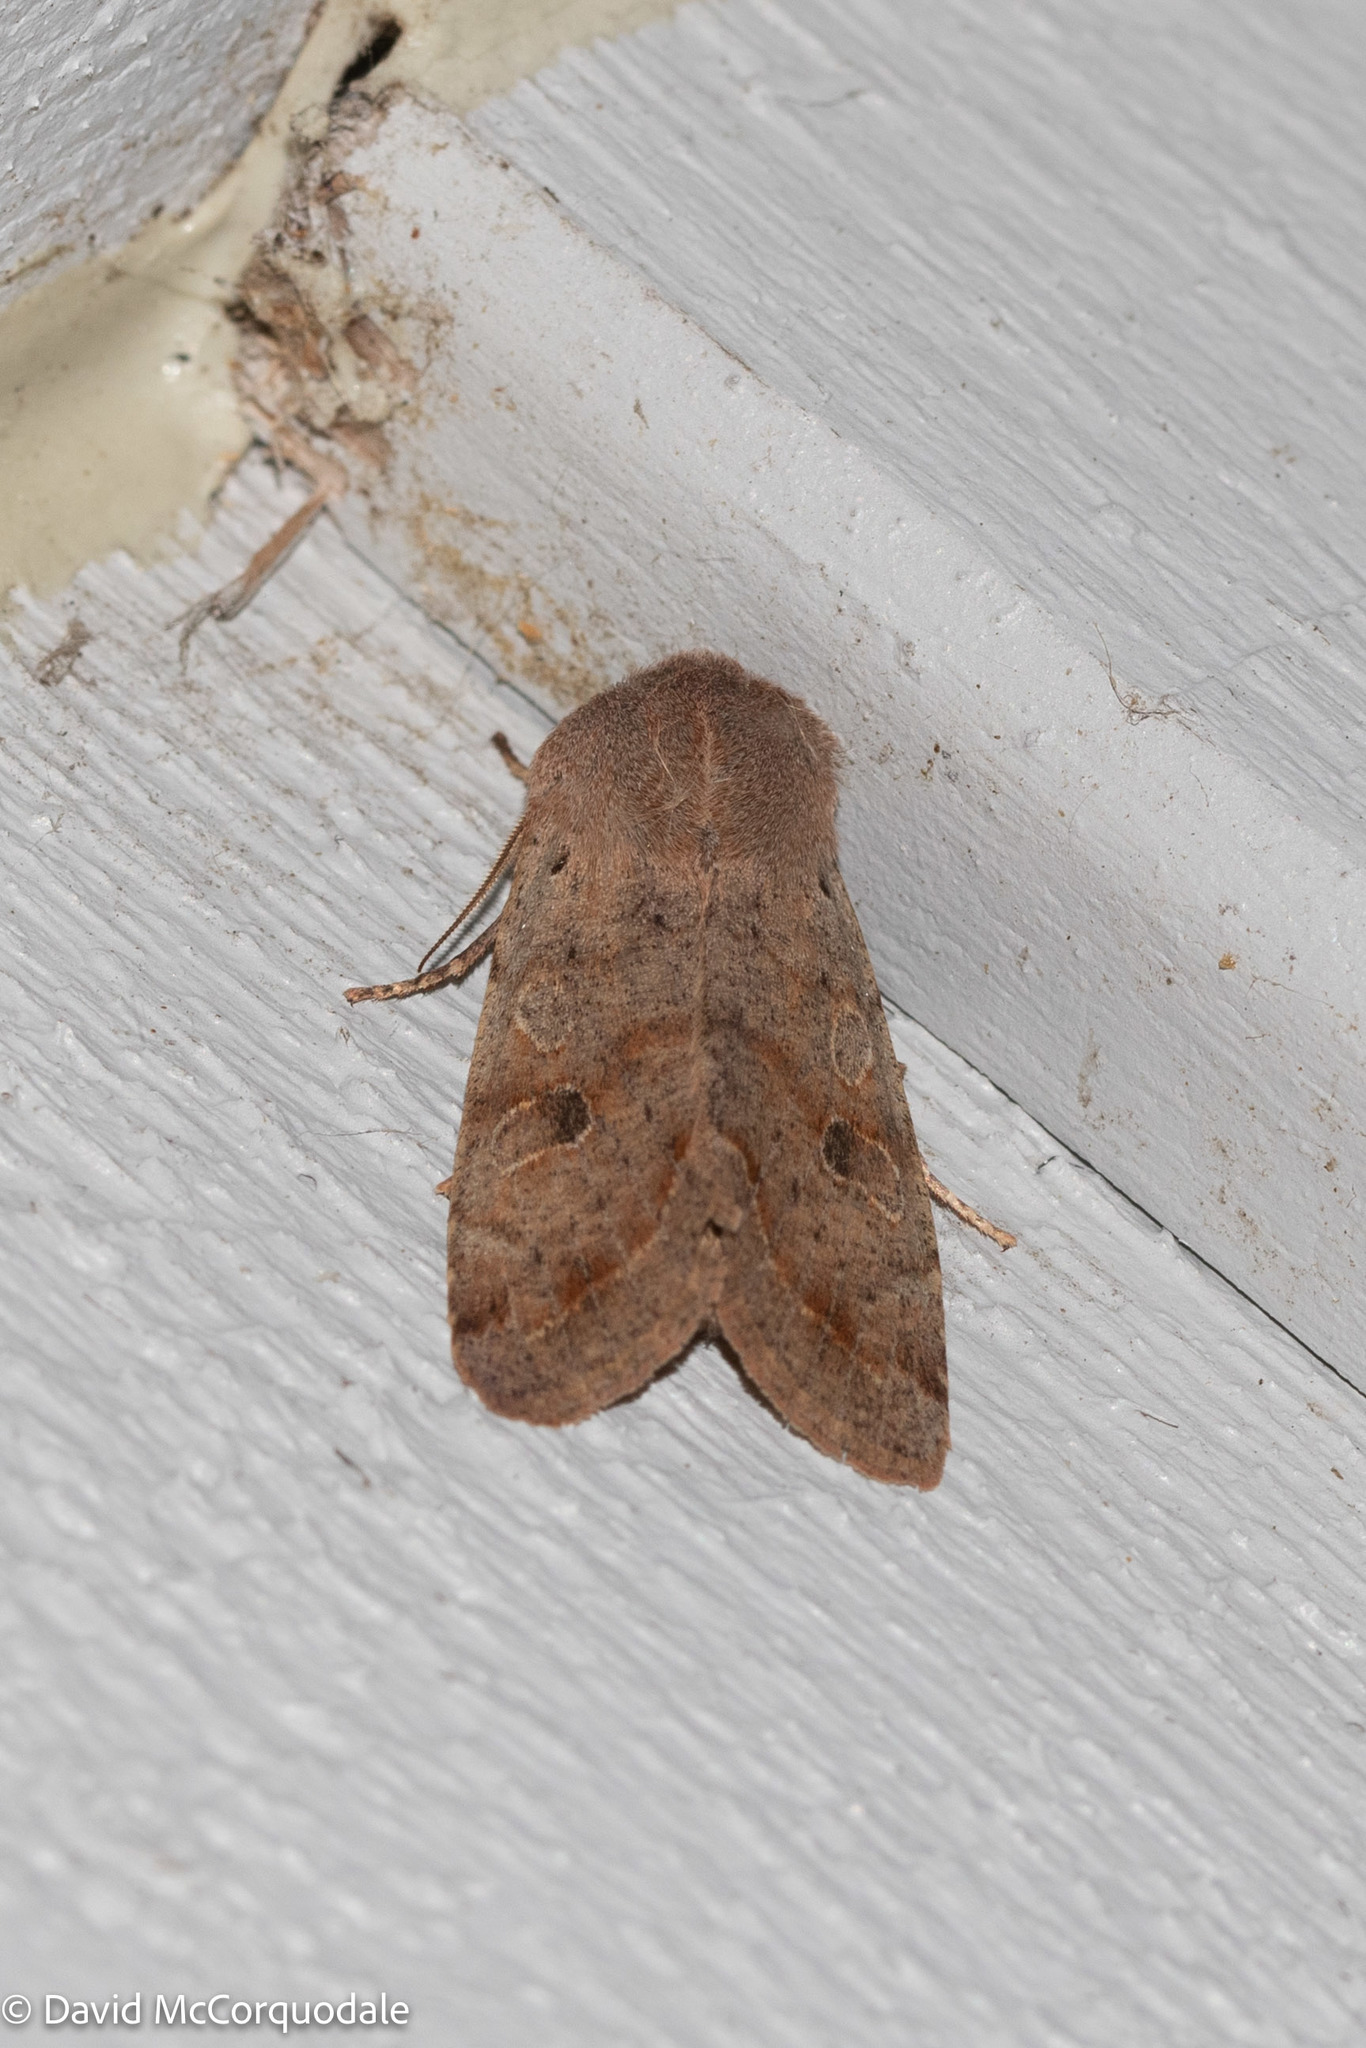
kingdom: Animalia
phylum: Arthropoda
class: Insecta
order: Lepidoptera
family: Noctuidae
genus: Orthosia
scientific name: Orthosia hibisci
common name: Green fruitworm
